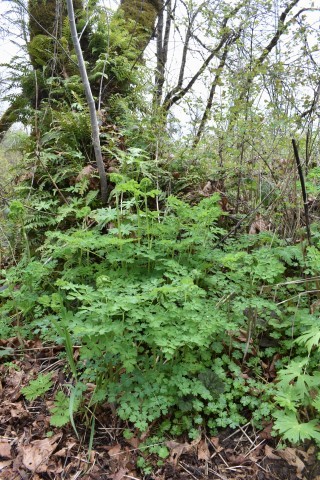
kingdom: Plantae
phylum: Tracheophyta
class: Magnoliopsida
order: Ranunculales
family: Ranunculaceae
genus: Thalictrum
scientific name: Thalictrum fendleri
